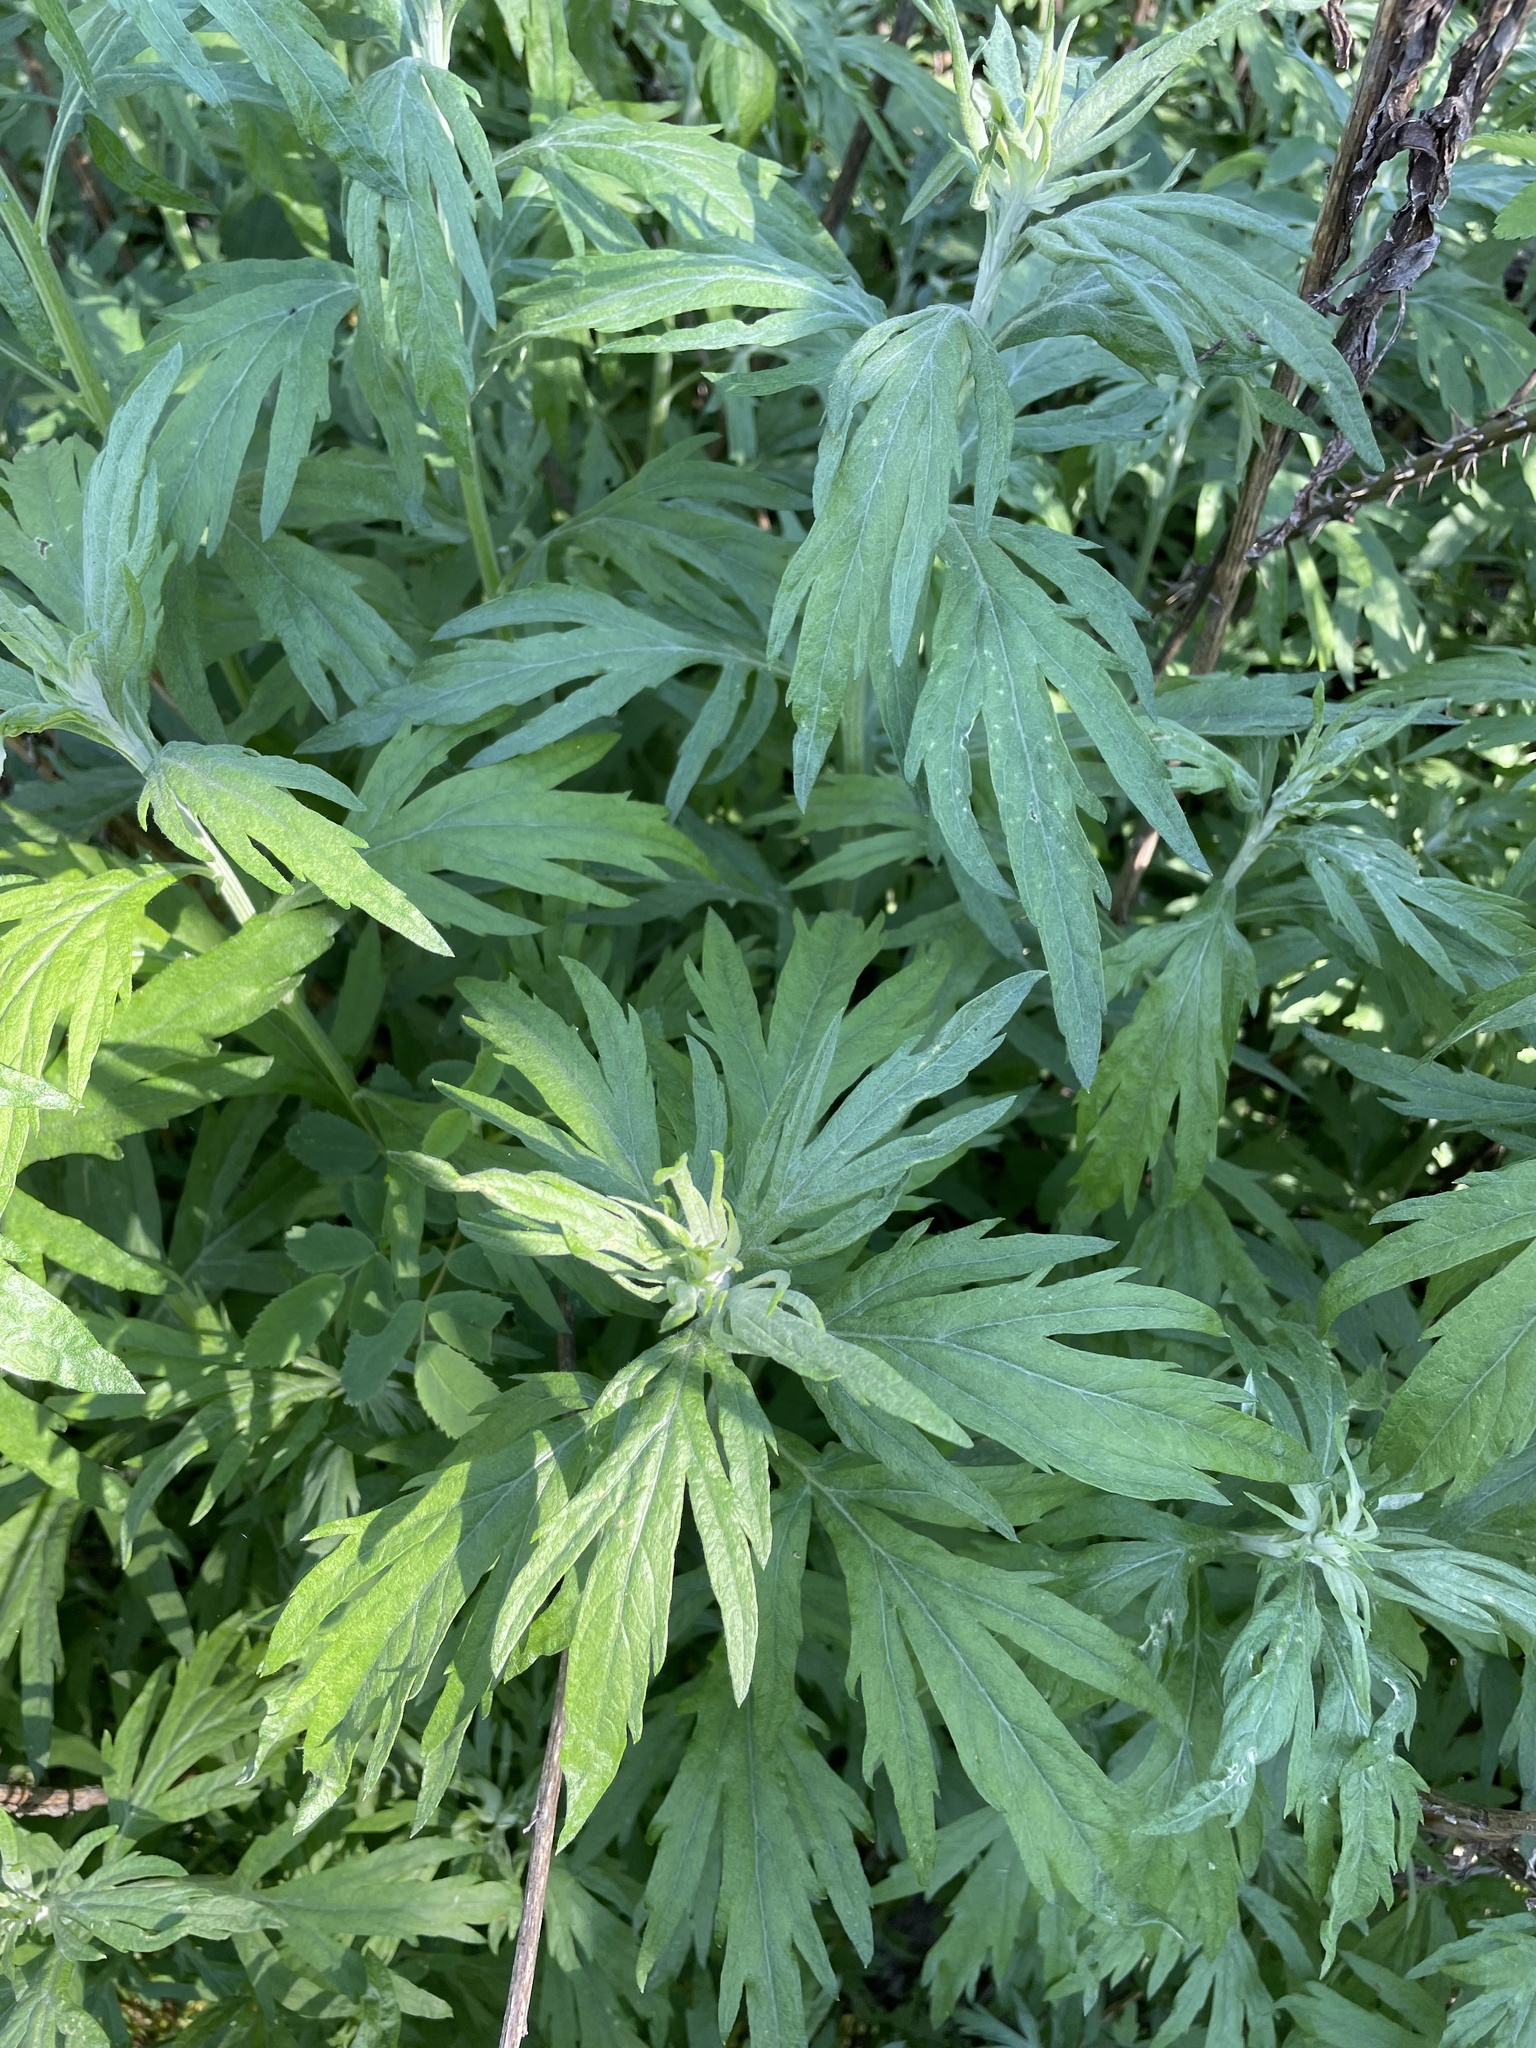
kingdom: Plantae
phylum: Tracheophyta
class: Magnoliopsida
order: Asterales
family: Asteraceae
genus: Artemisia
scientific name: Artemisia douglasiana
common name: Northwest mugwort
